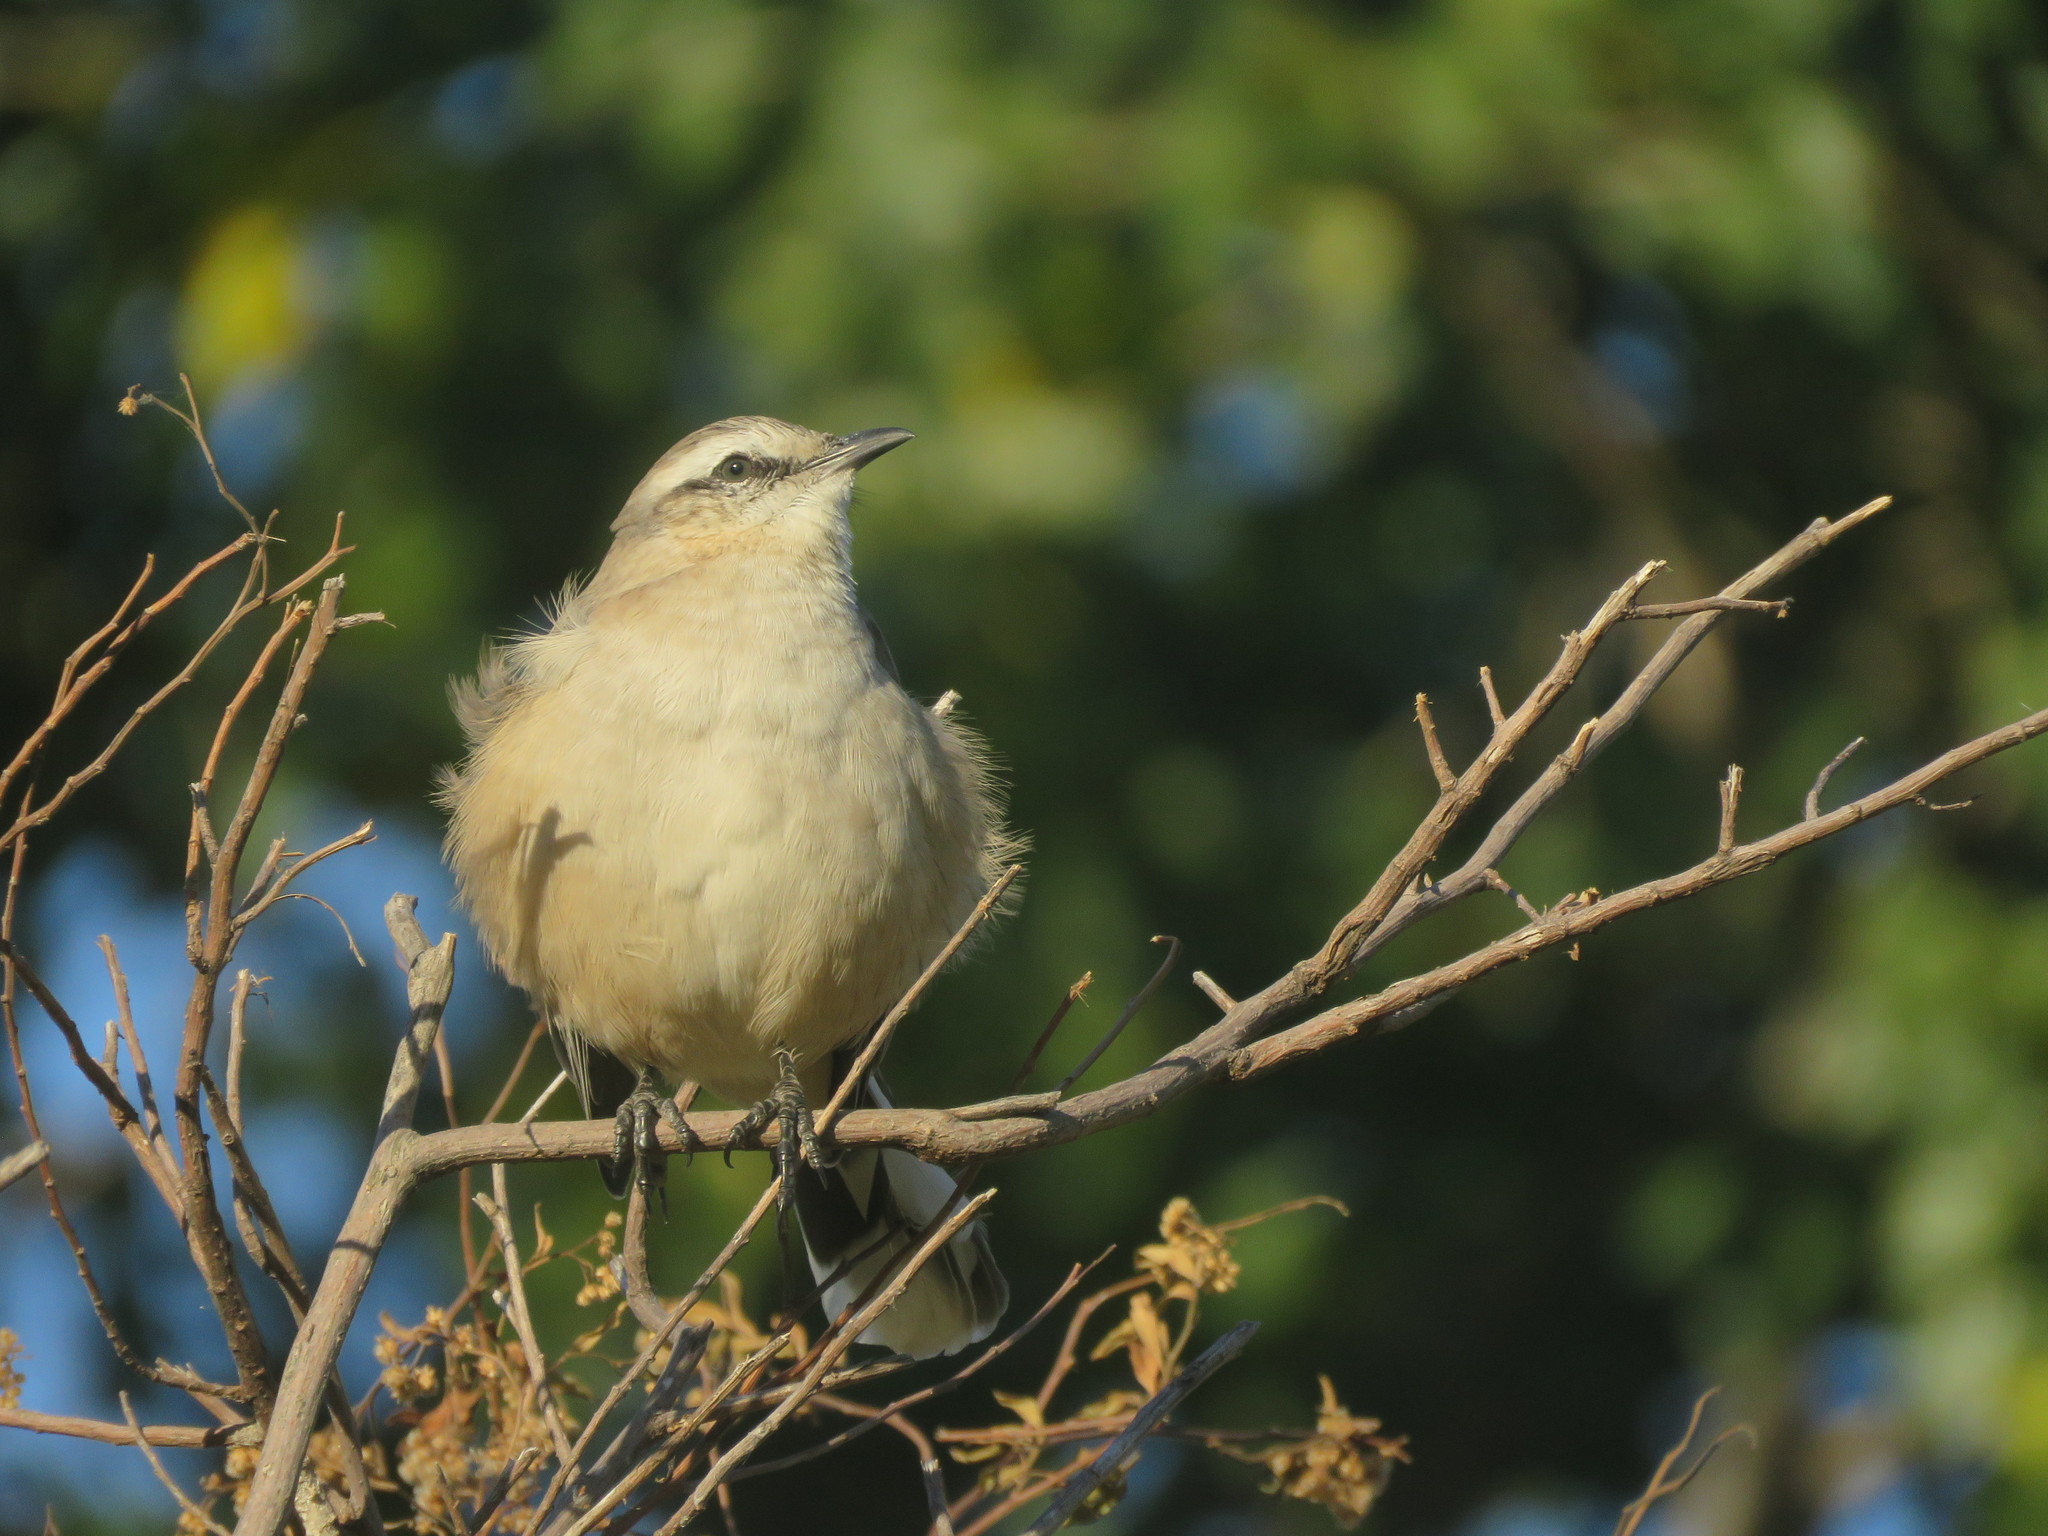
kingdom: Animalia
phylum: Chordata
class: Aves
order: Passeriformes
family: Mimidae
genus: Mimus
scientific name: Mimus saturninus
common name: Chalk-browed mockingbird
